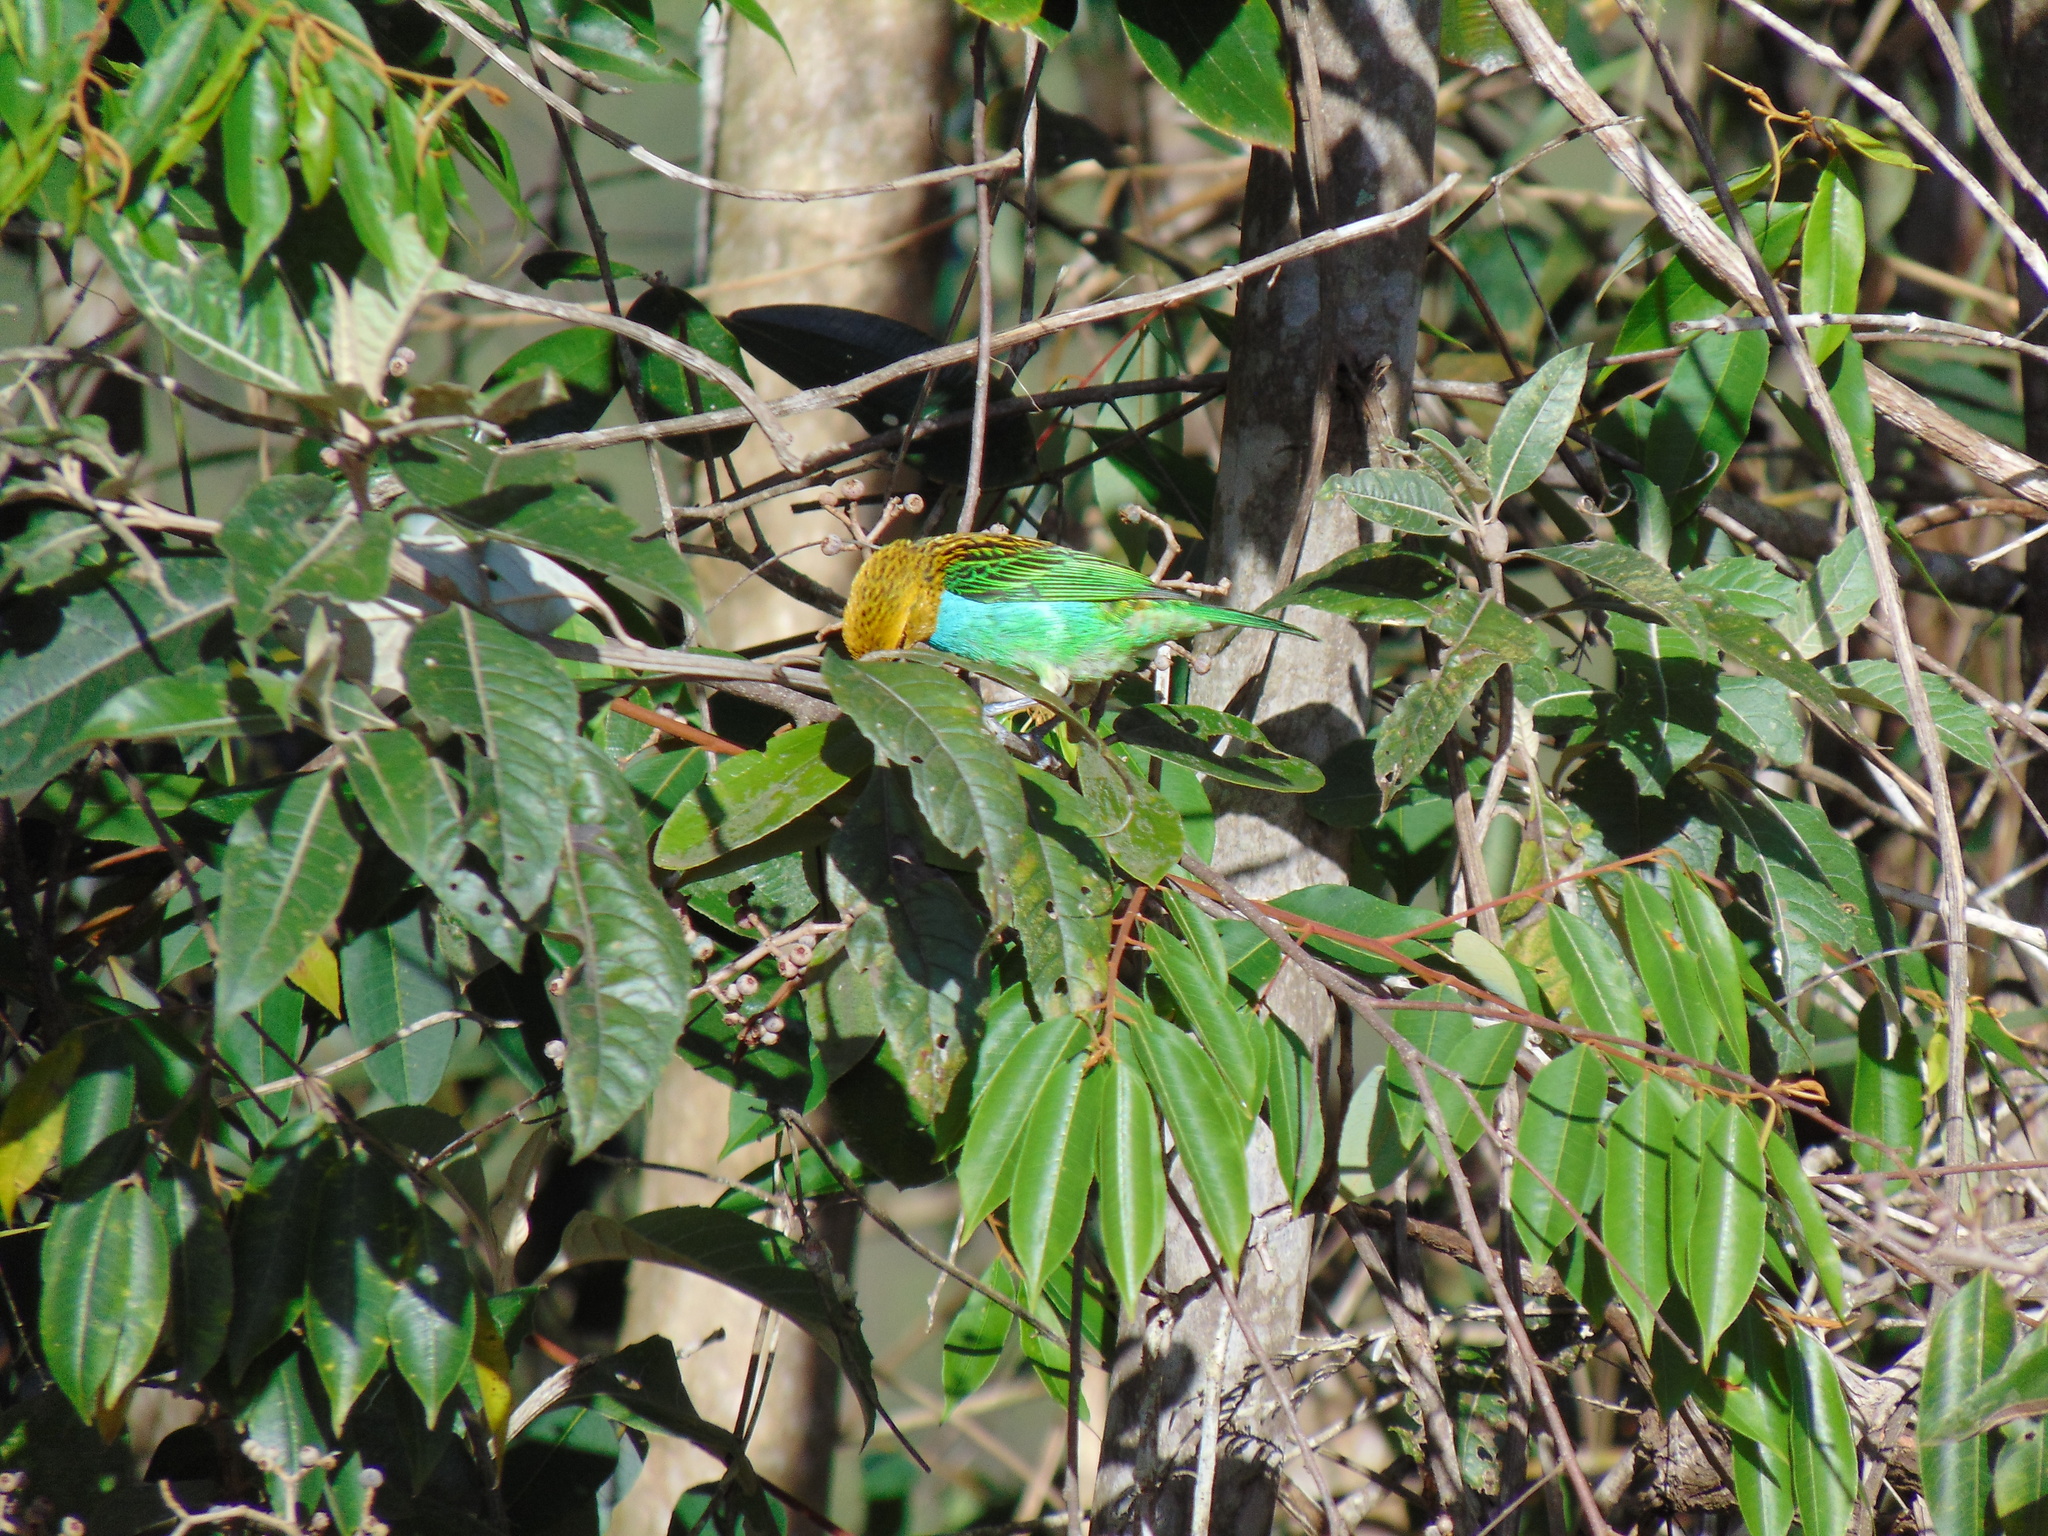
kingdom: Animalia
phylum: Chordata
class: Aves
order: Passeriformes
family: Thraupidae
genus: Tangara
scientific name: Tangara cyanoventris
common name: Gilt-edged tanager
